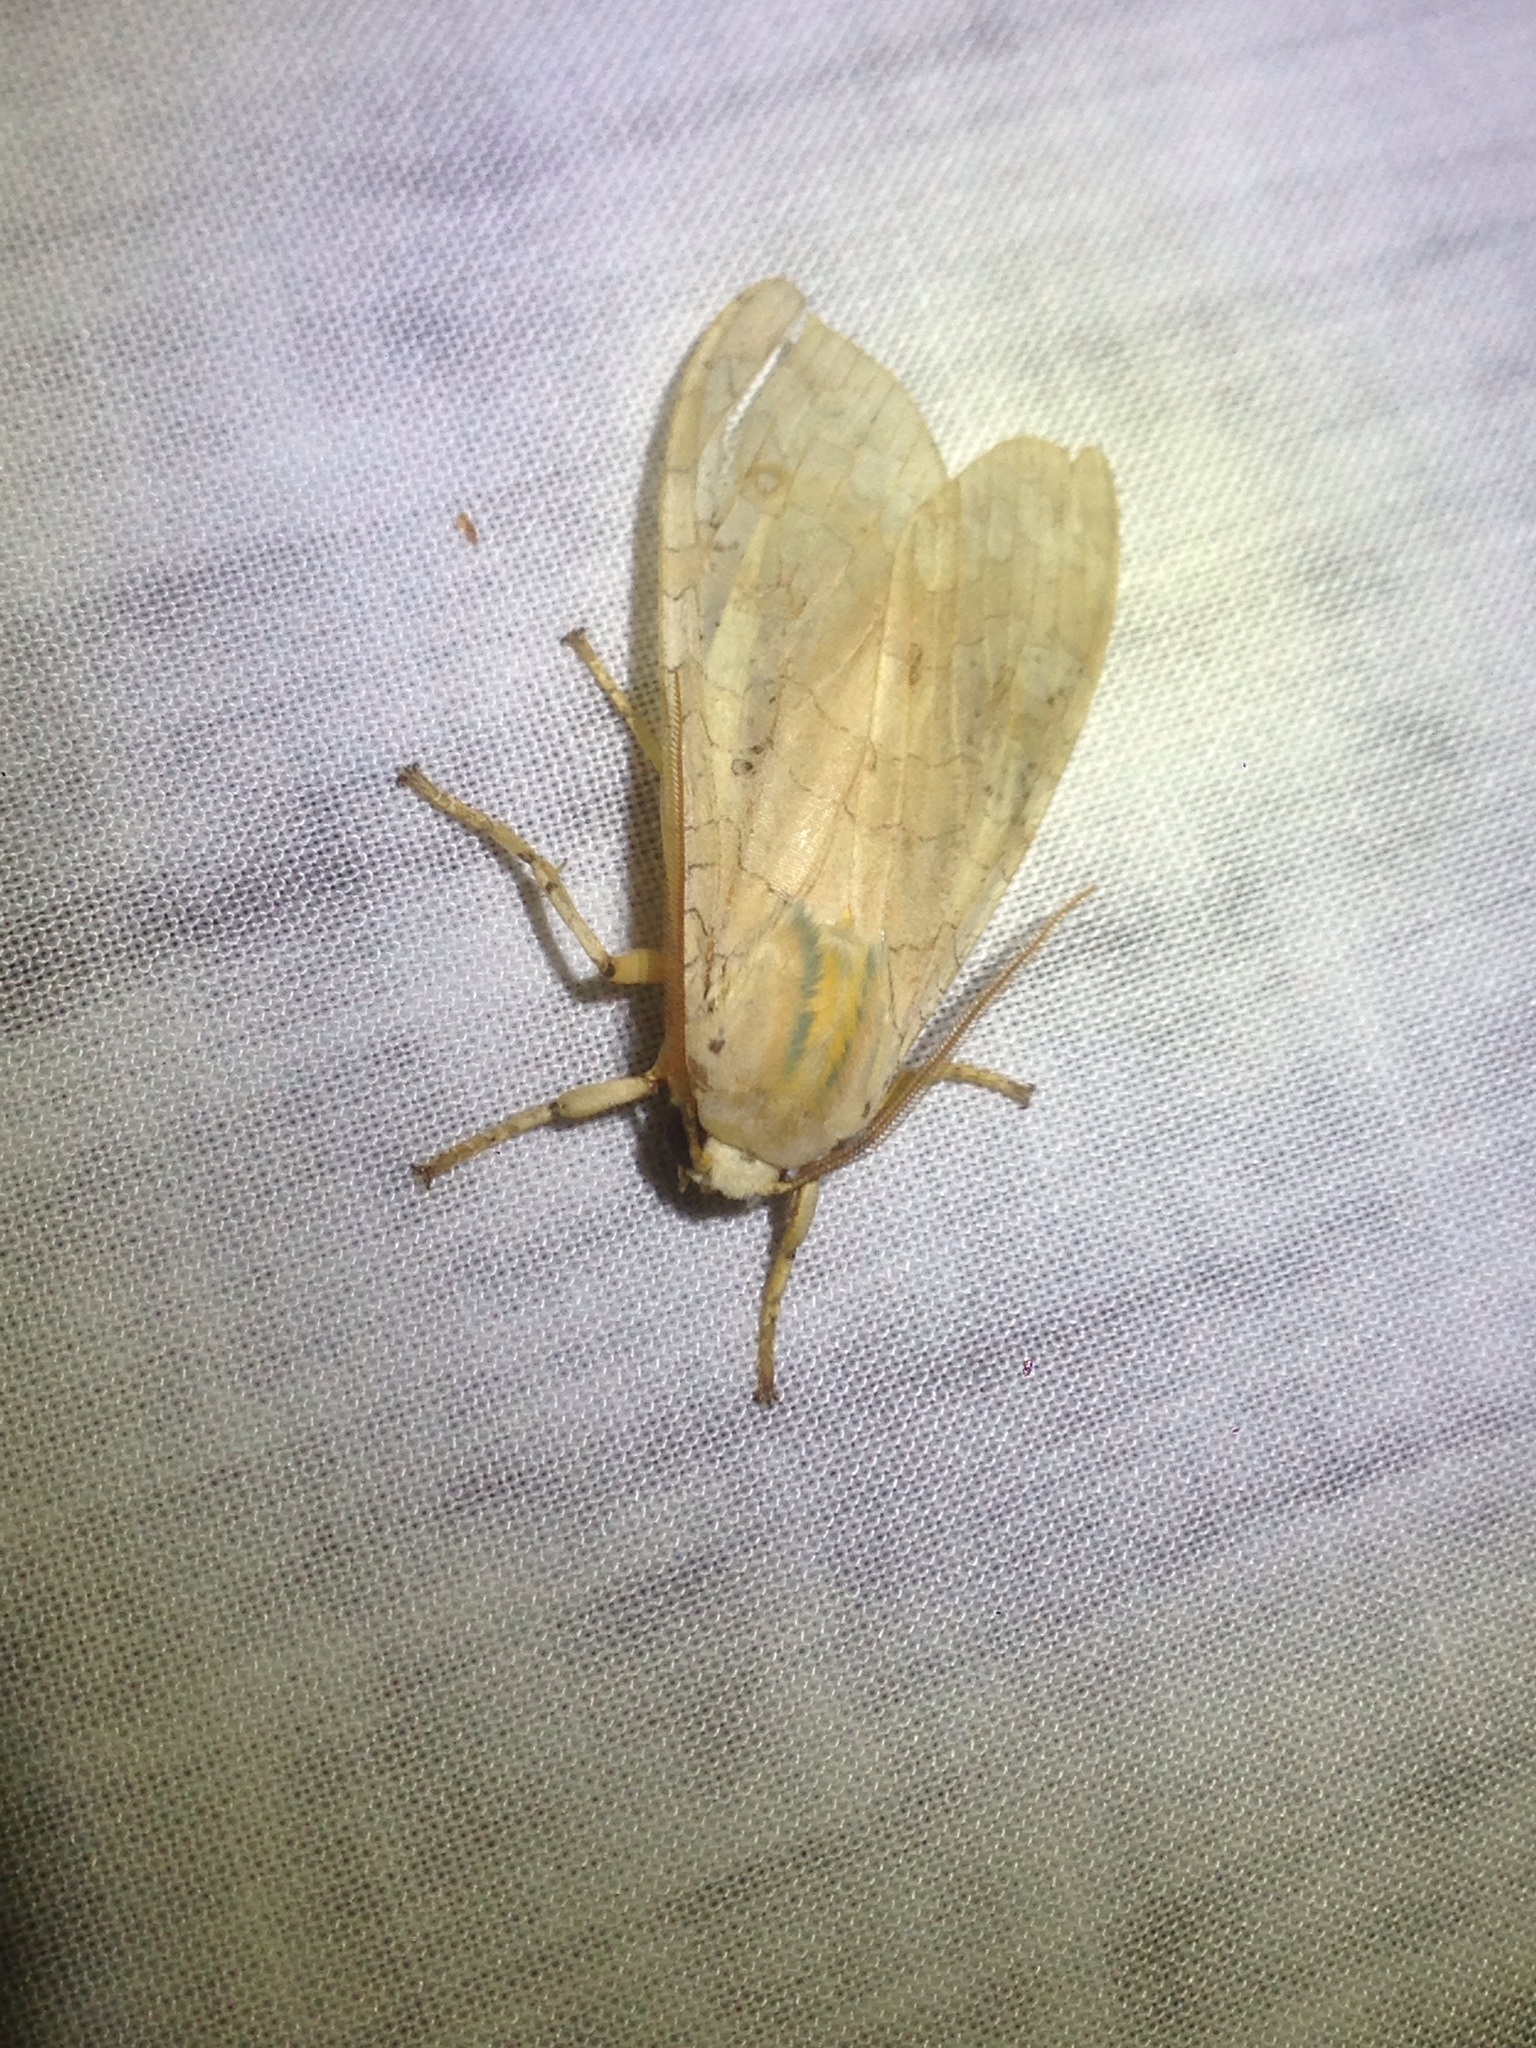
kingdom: Animalia
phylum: Arthropoda
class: Insecta
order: Lepidoptera
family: Erebidae
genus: Halysidota
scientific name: Halysidota
